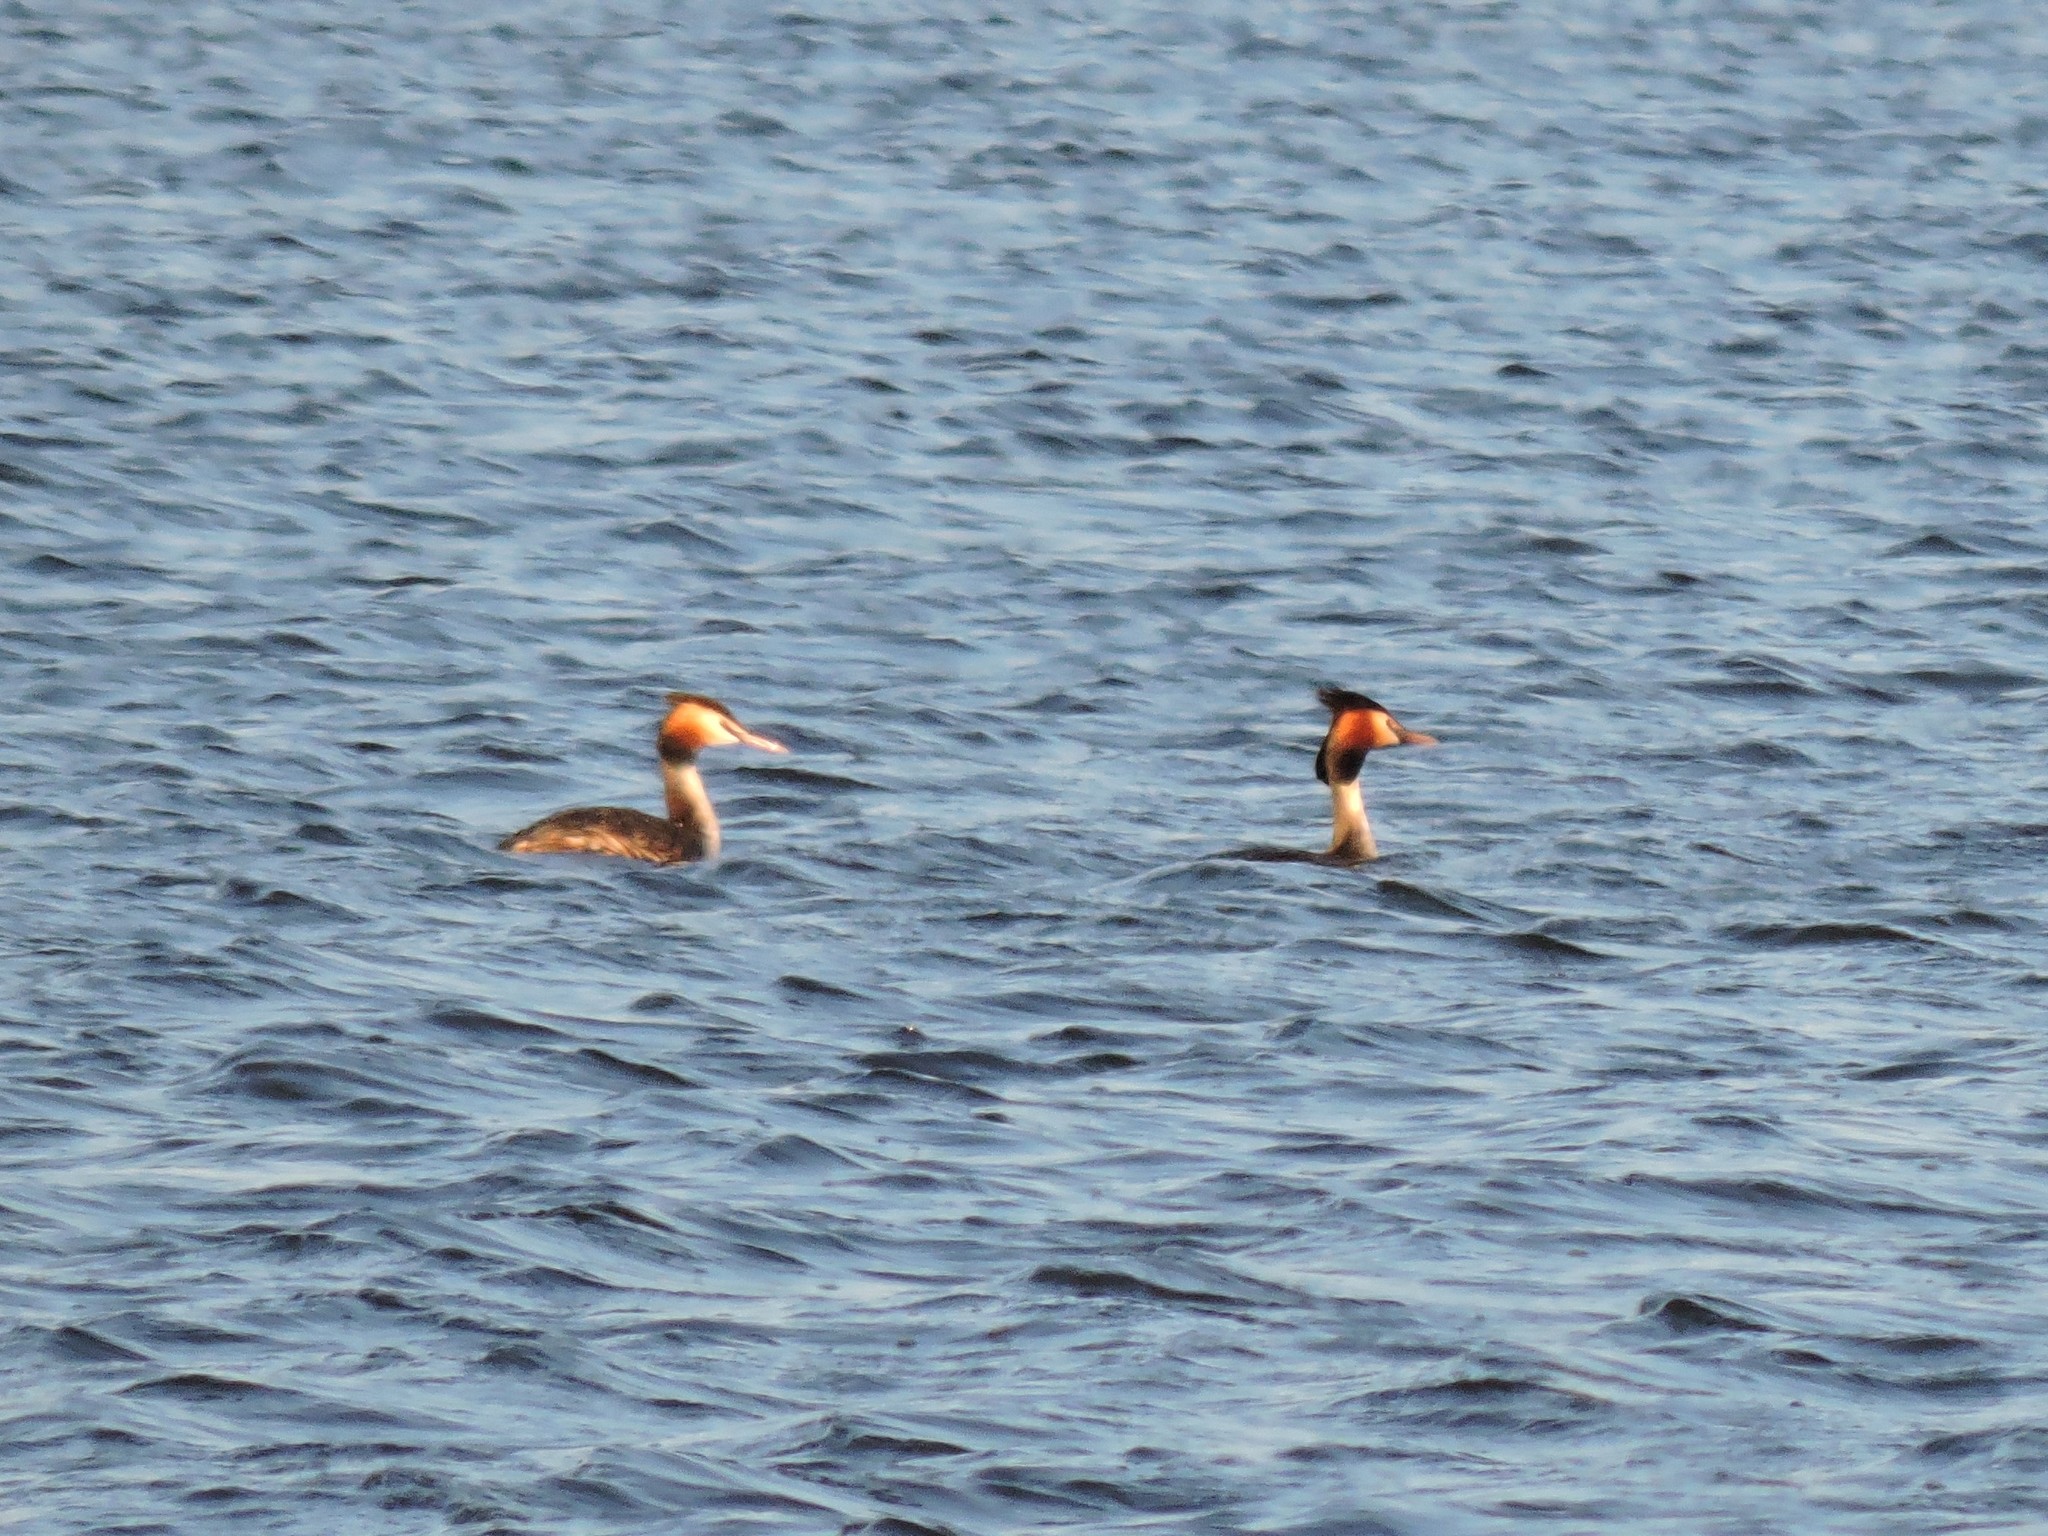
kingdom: Animalia
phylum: Chordata
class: Aves
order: Podicipediformes
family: Podicipedidae
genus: Podiceps
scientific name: Podiceps cristatus
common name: Great crested grebe
